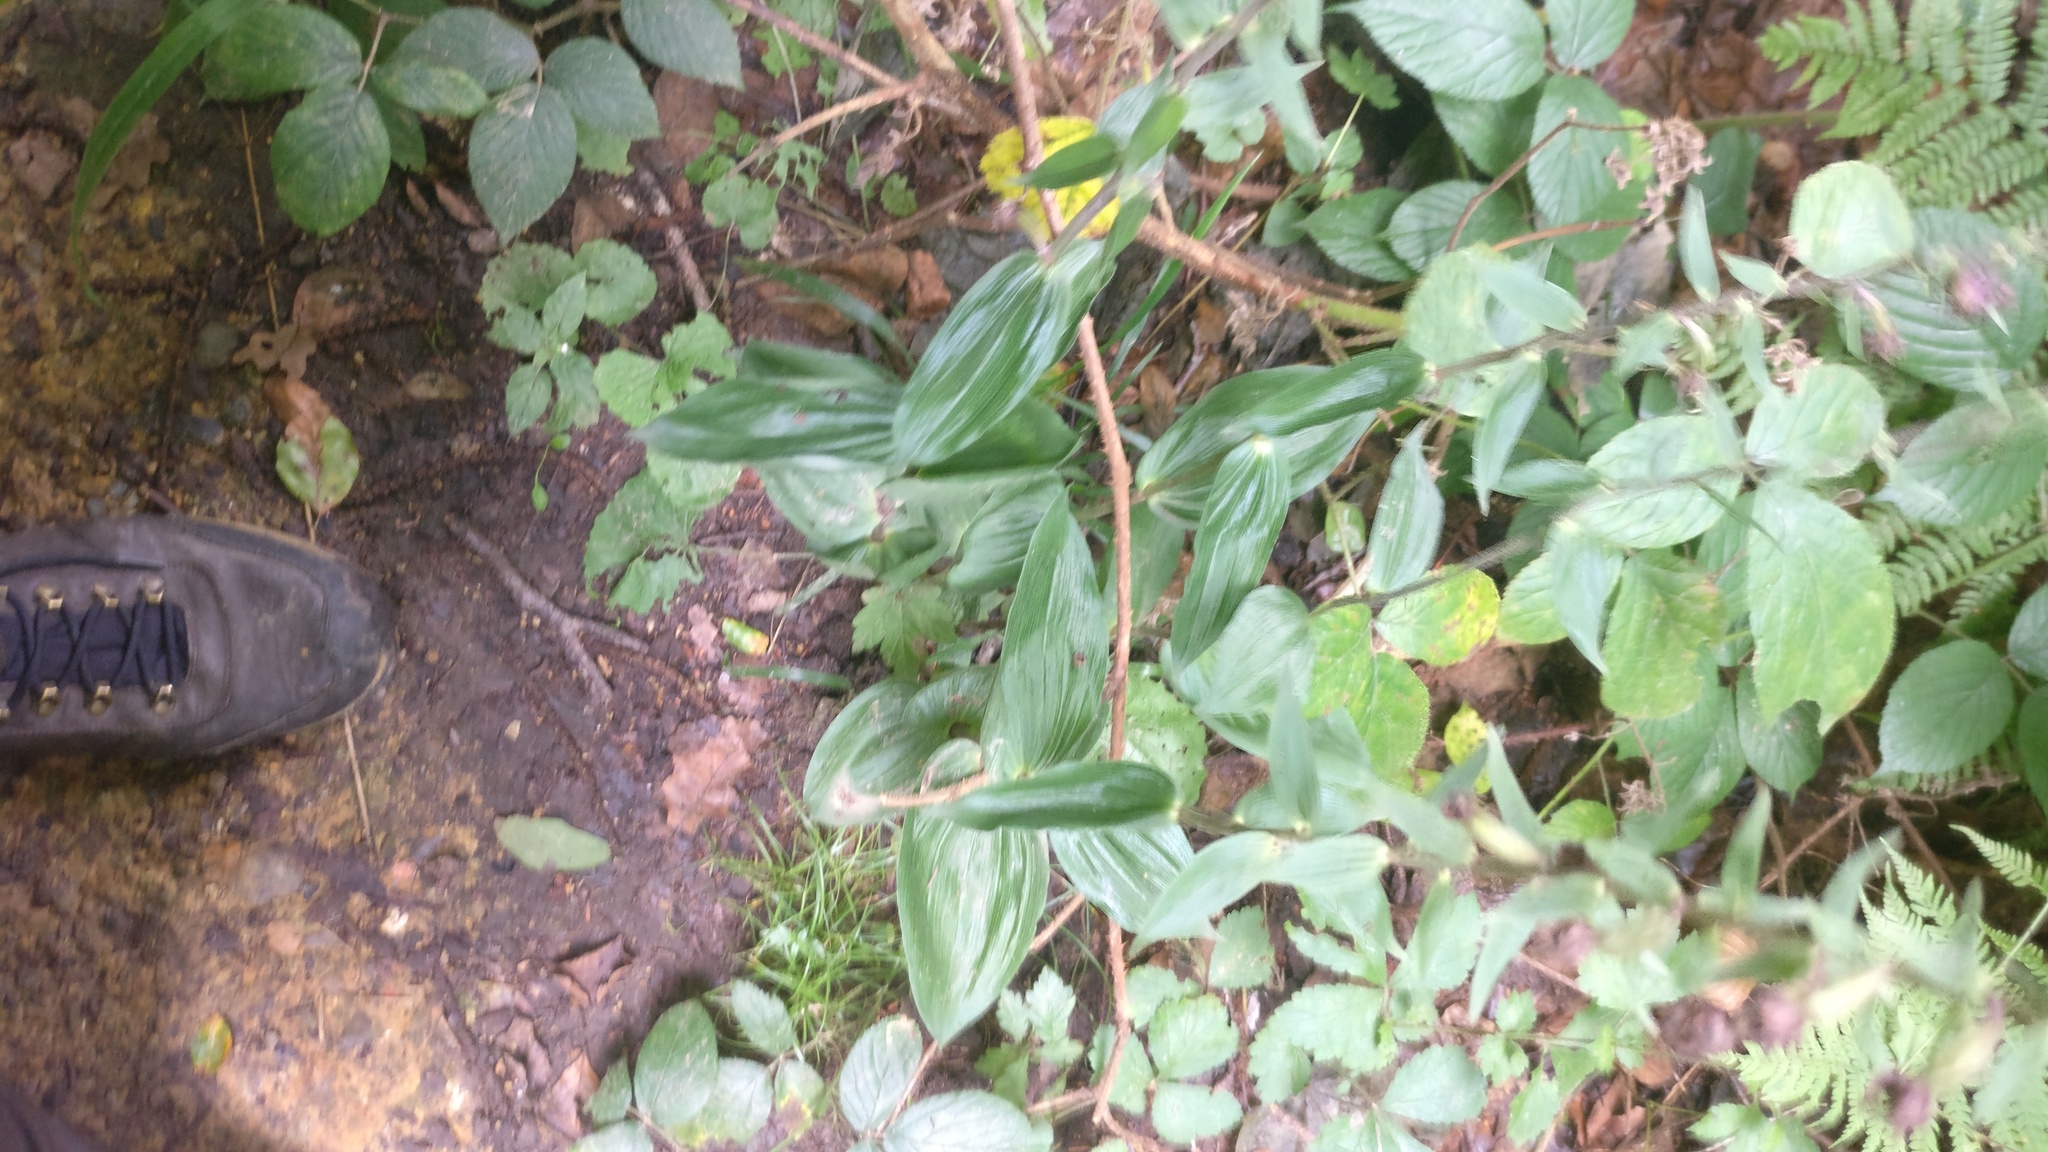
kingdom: Plantae
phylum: Tracheophyta
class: Liliopsida
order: Asparagales
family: Orchidaceae
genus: Epipactis
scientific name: Epipactis helleborine
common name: Broad-leaved helleborine
